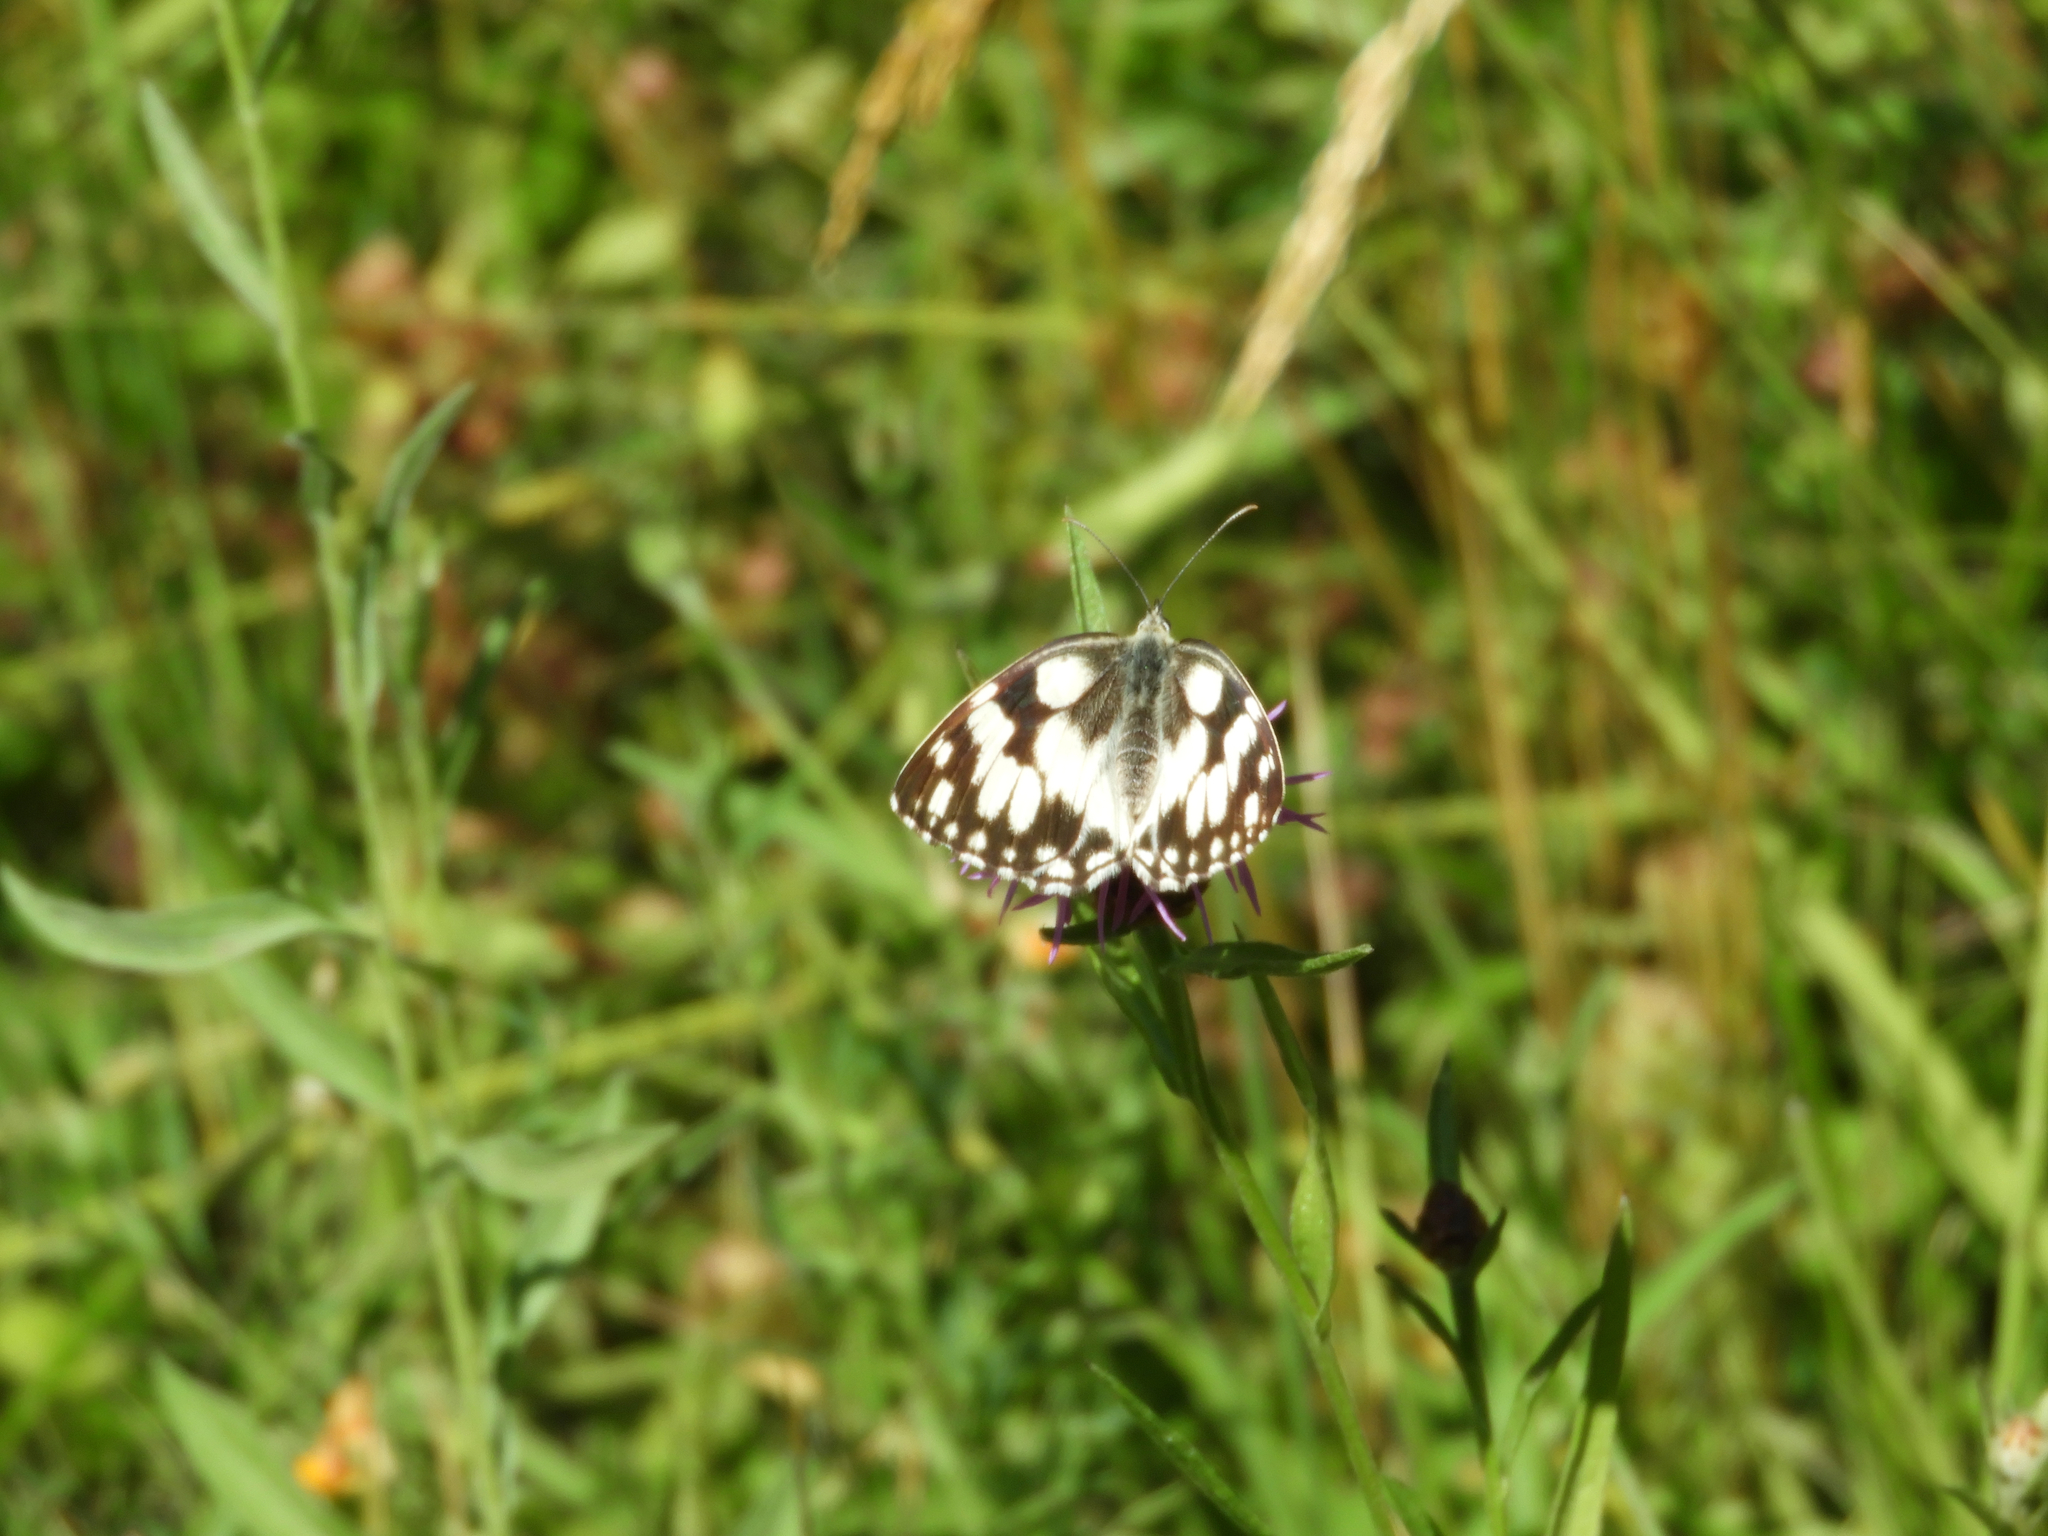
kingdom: Animalia
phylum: Arthropoda
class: Insecta
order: Lepidoptera
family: Nymphalidae
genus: Melanargia
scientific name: Melanargia galathea
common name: Marbled white
